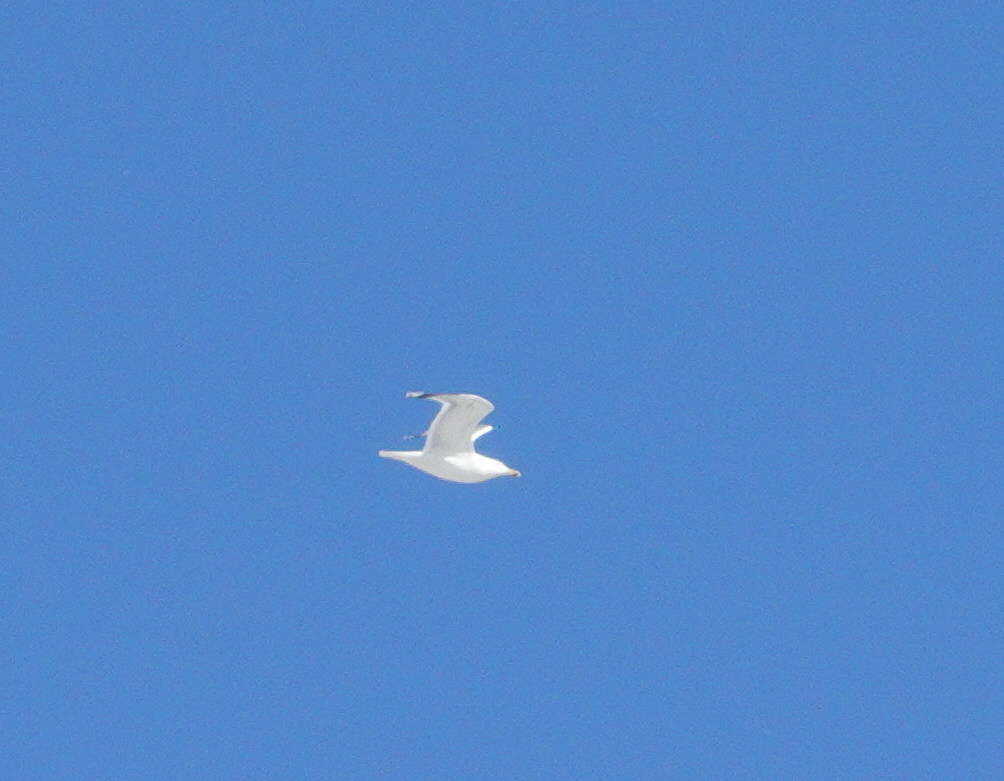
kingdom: Animalia
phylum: Chordata
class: Aves
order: Charadriiformes
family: Laridae
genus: Larus
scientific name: Larus cachinnans
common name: Caspian gull
